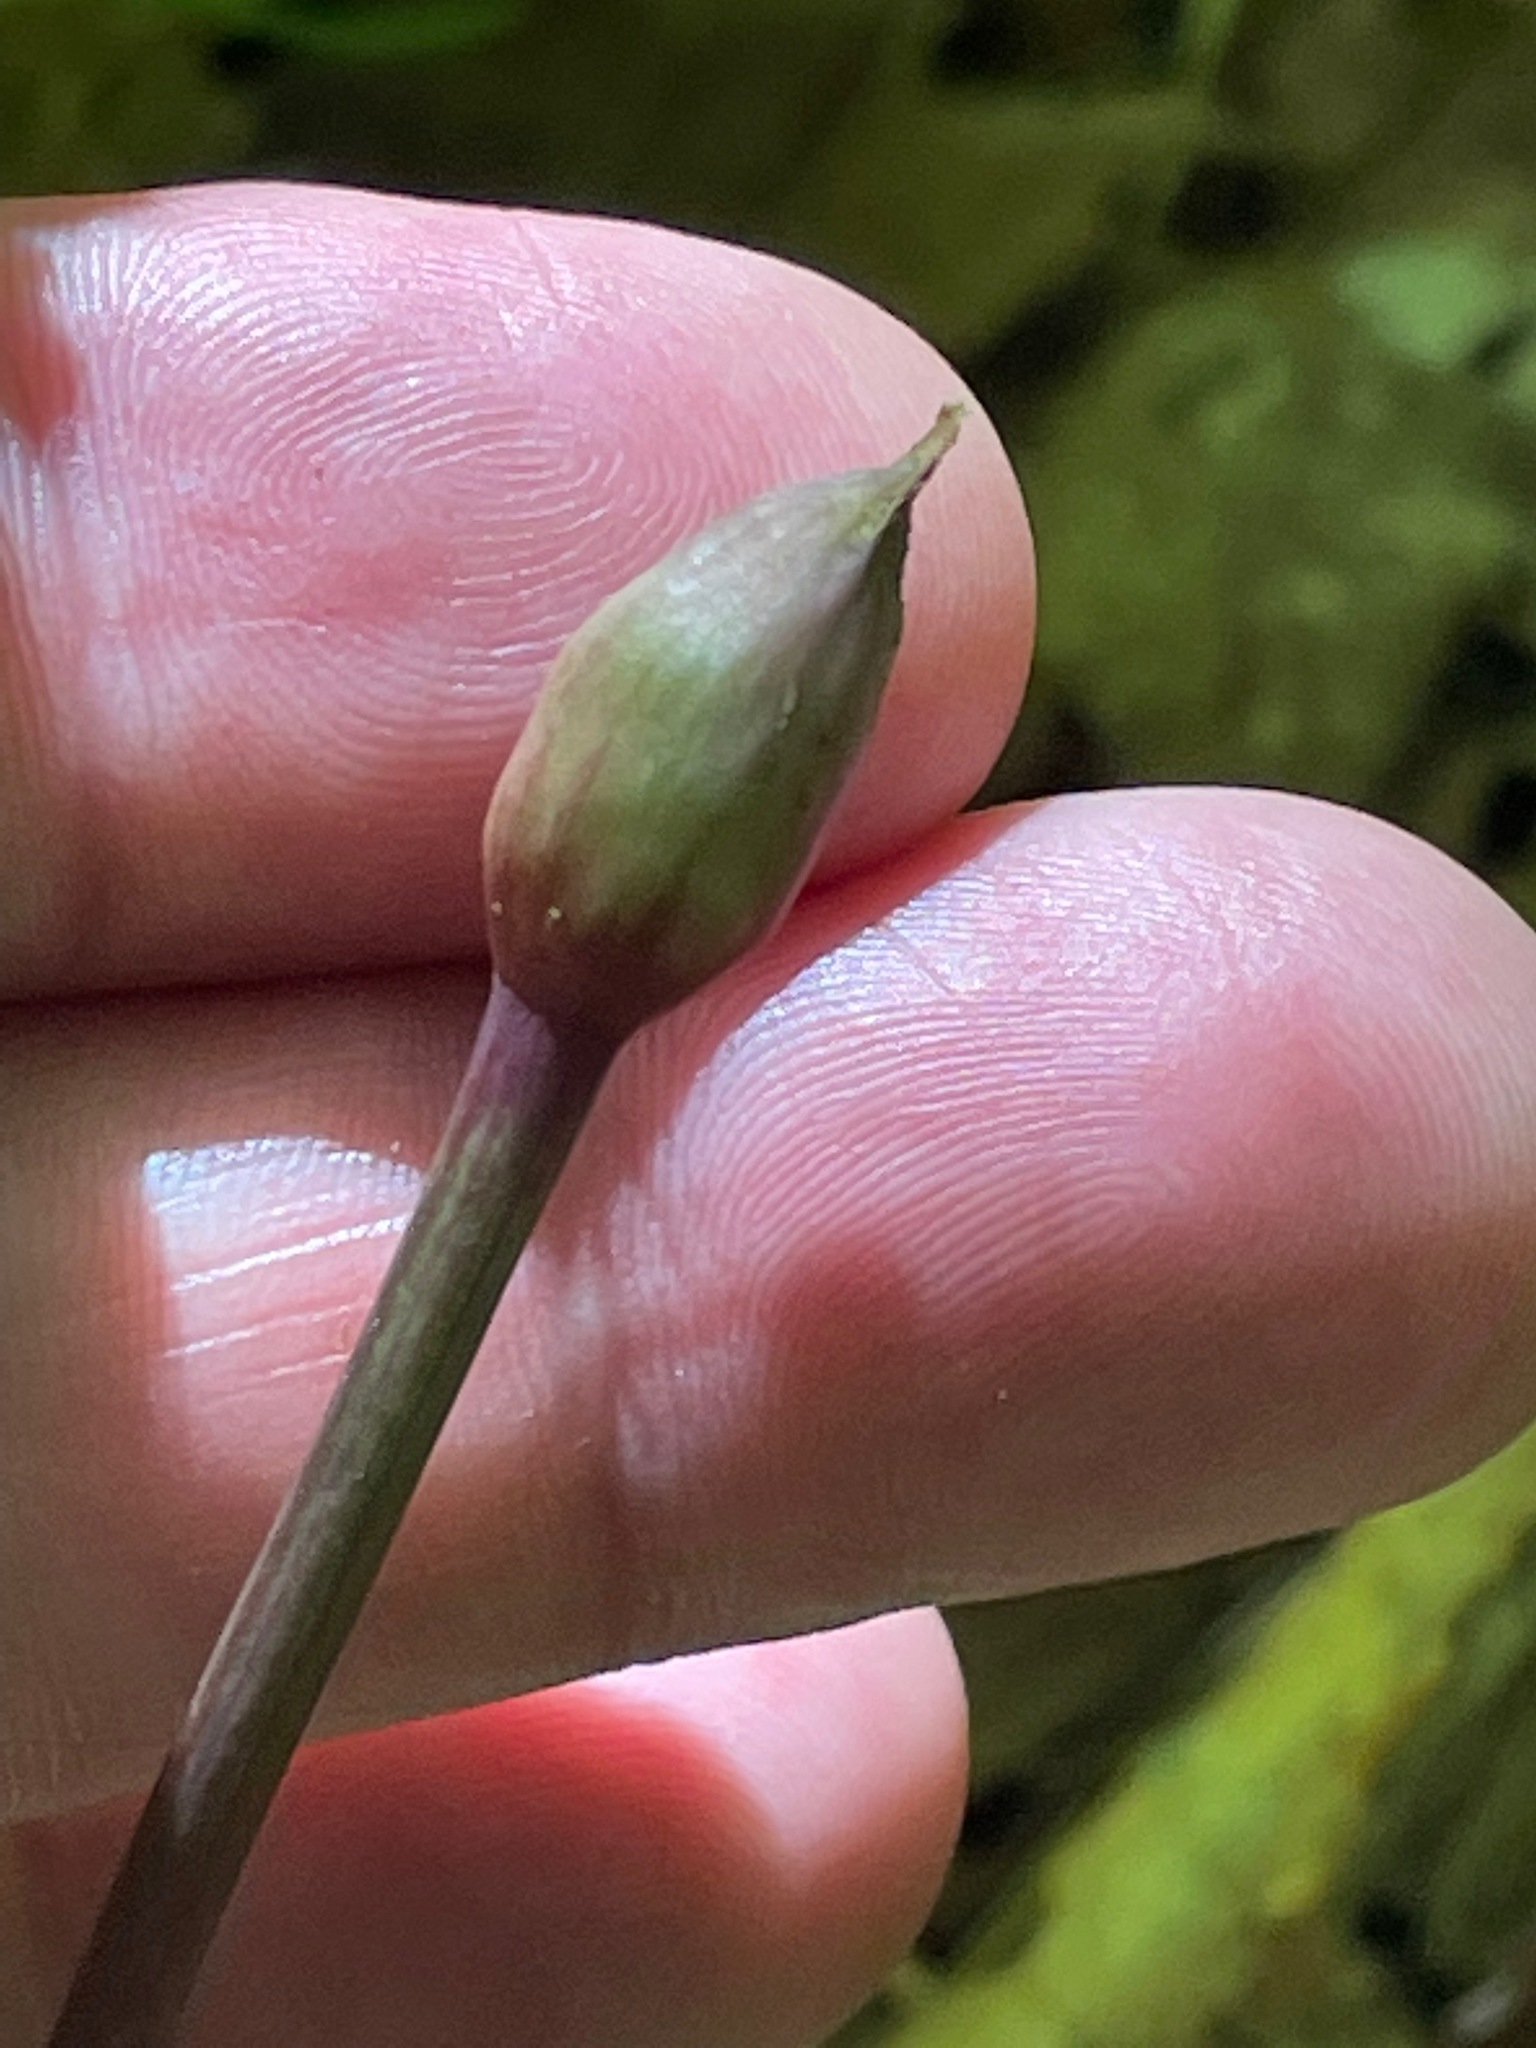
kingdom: Plantae
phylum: Tracheophyta
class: Liliopsida
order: Asparagales
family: Amaryllidaceae
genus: Allium
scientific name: Allium tricoccum
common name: Ramp
